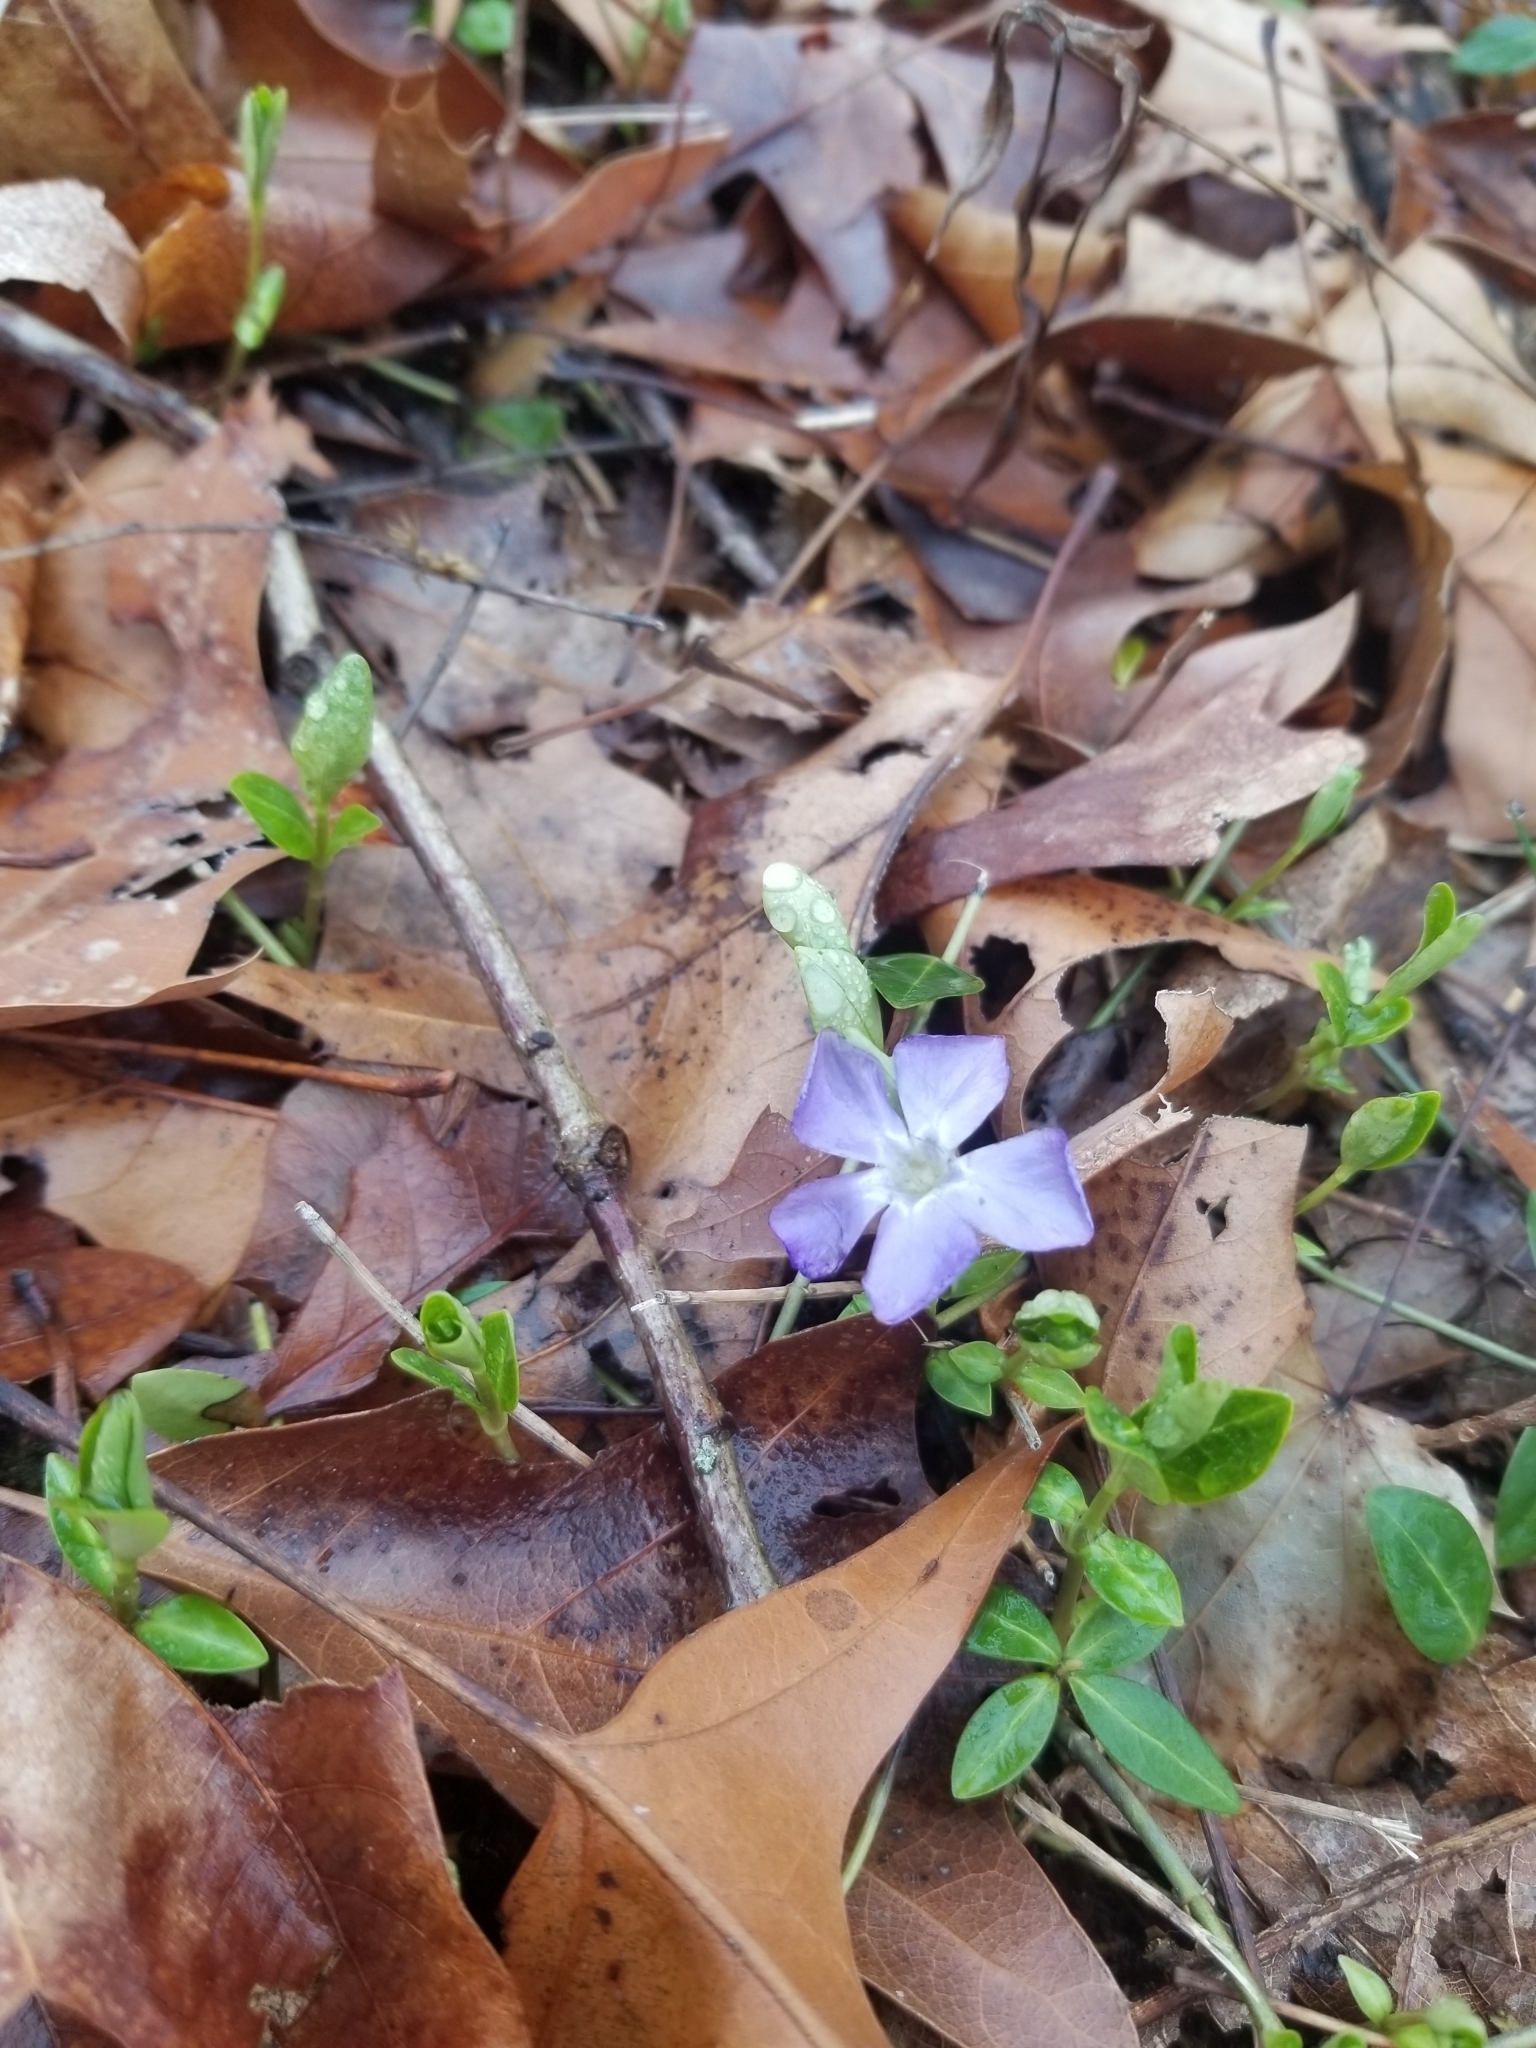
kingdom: Plantae
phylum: Tracheophyta
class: Magnoliopsida
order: Gentianales
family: Apocynaceae
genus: Vinca
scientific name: Vinca minor
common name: Lesser periwinkle
